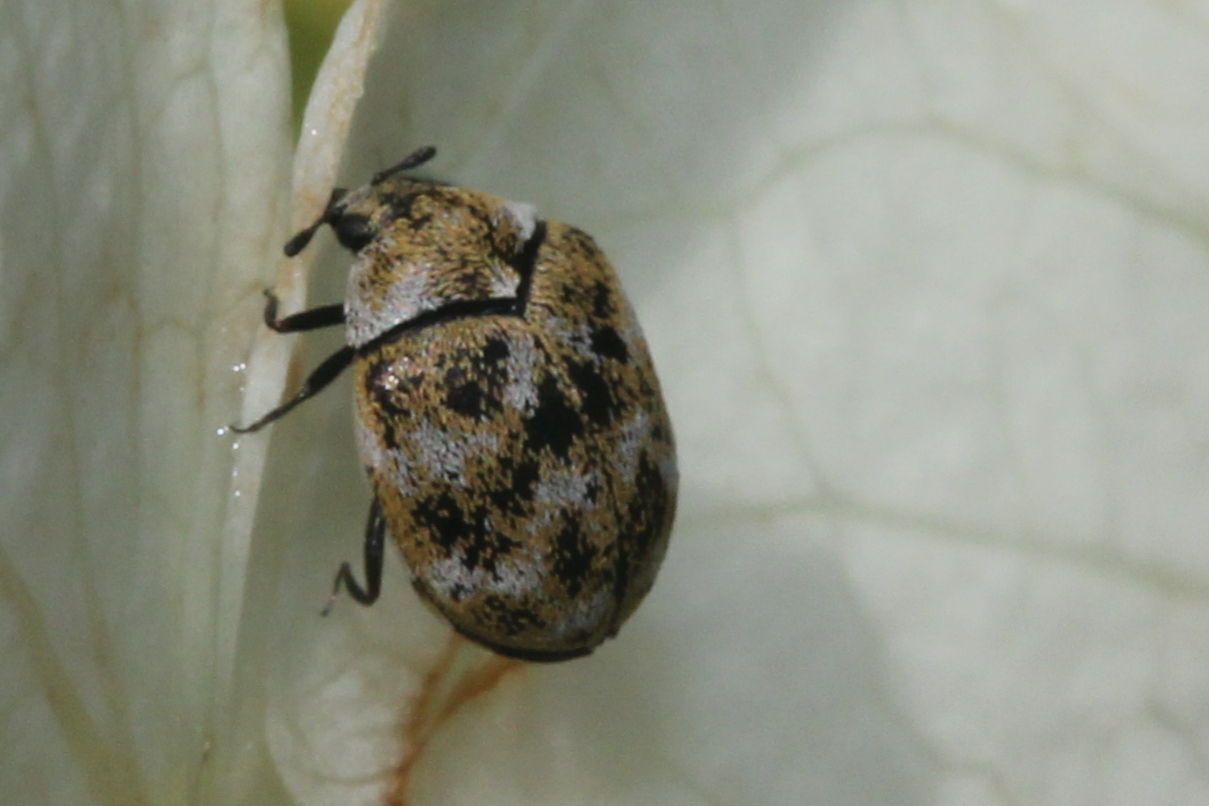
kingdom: Animalia
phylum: Arthropoda
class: Insecta
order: Coleoptera
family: Dermestidae
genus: Anthrenus
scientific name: Anthrenus verbasci
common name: Varied carpet beetle
